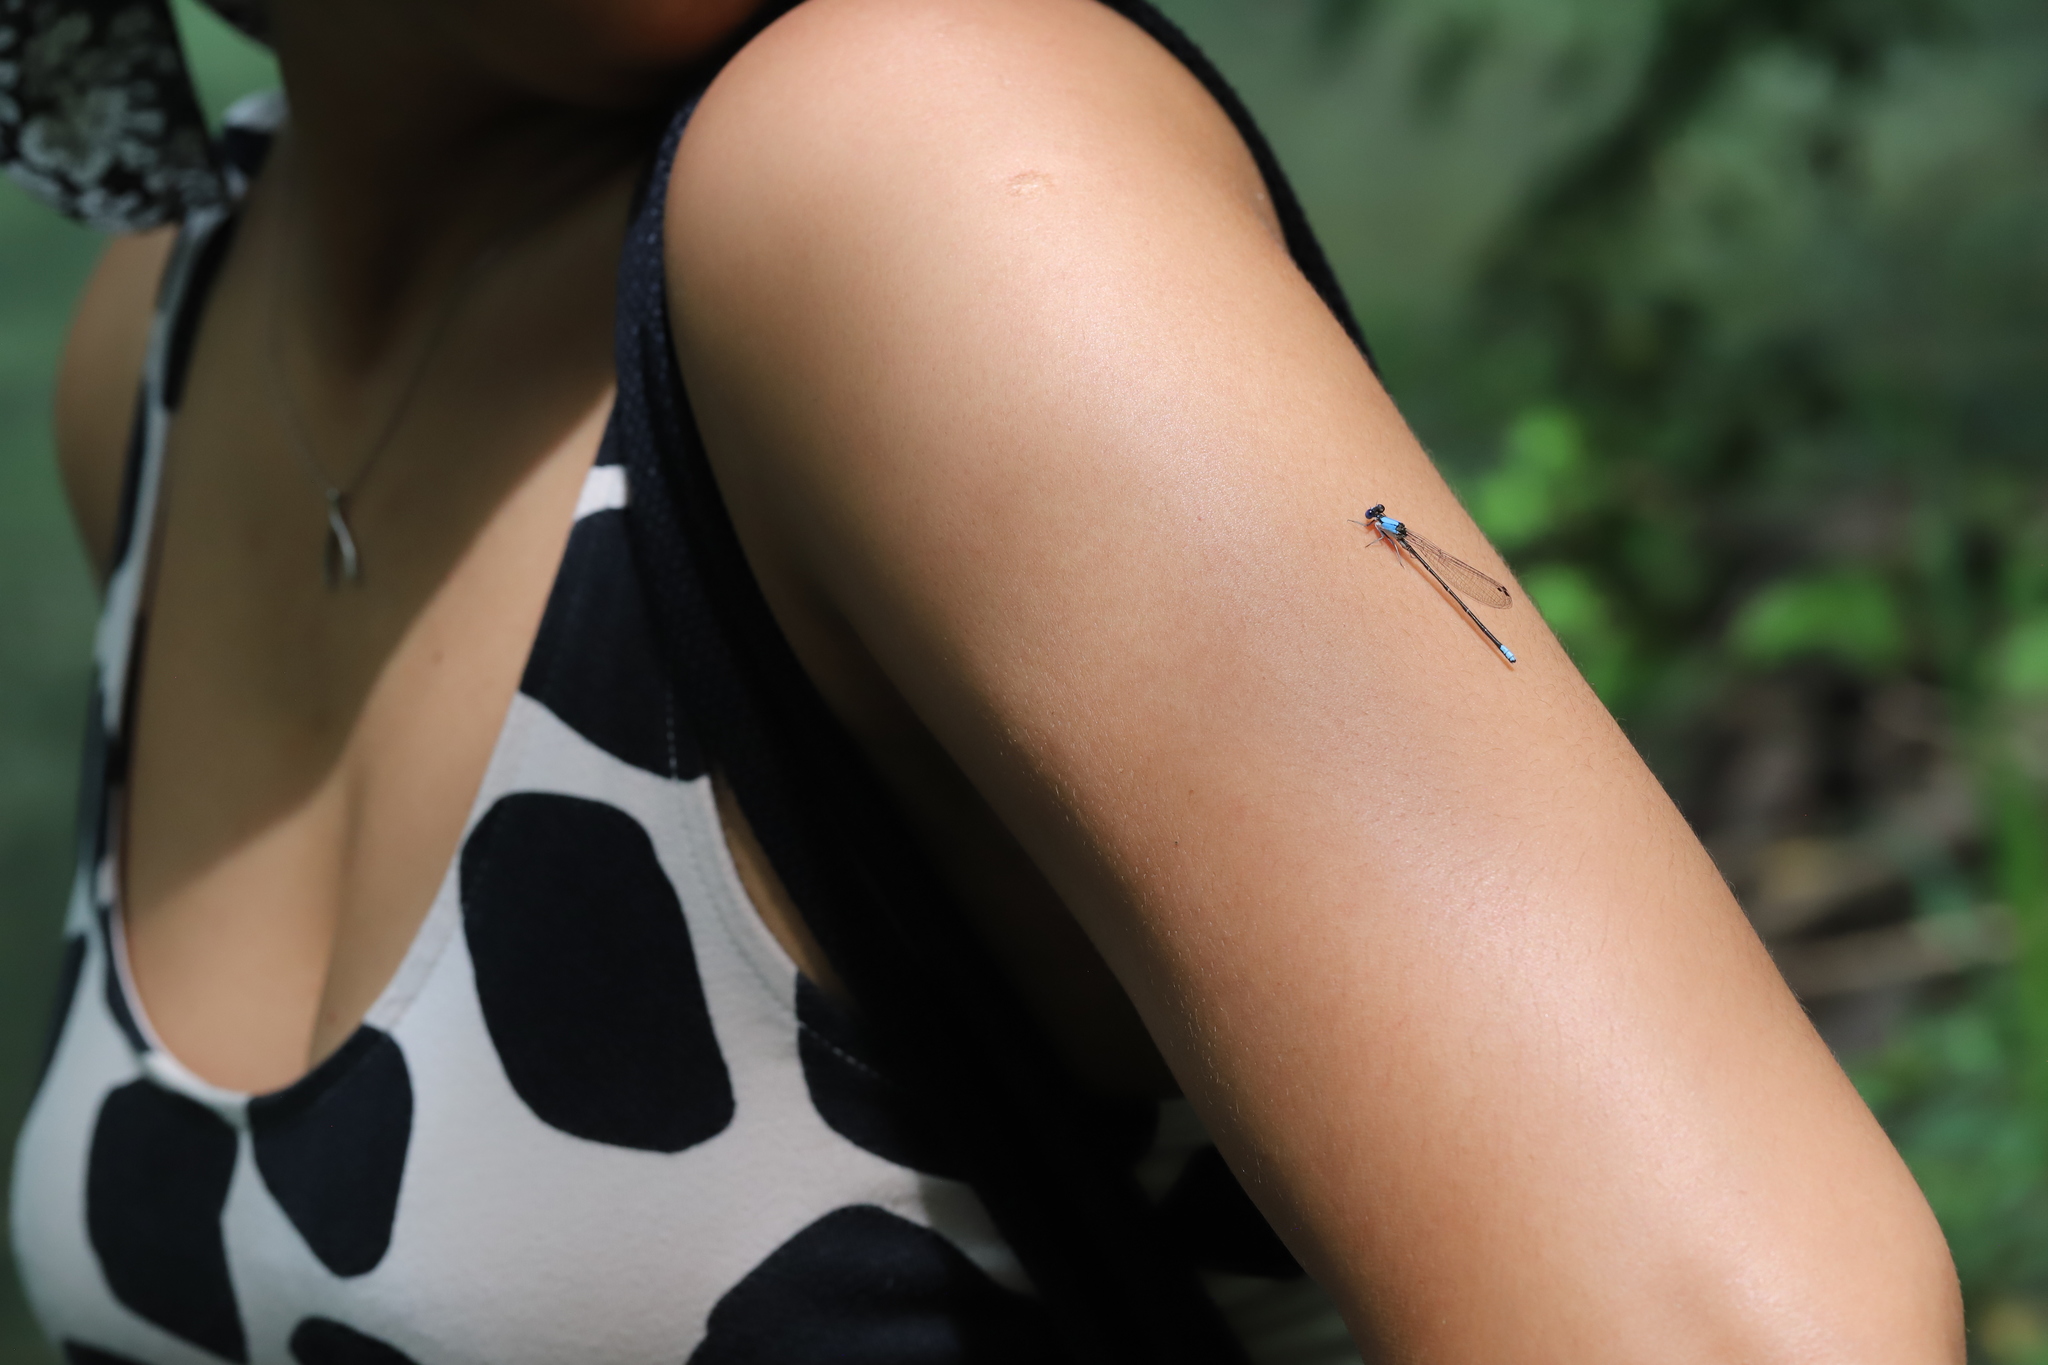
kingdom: Animalia
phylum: Arthropoda
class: Insecta
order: Odonata
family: Coenagrionidae
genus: Argia
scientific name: Argia apicalis
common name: Blue-fronted dancer
